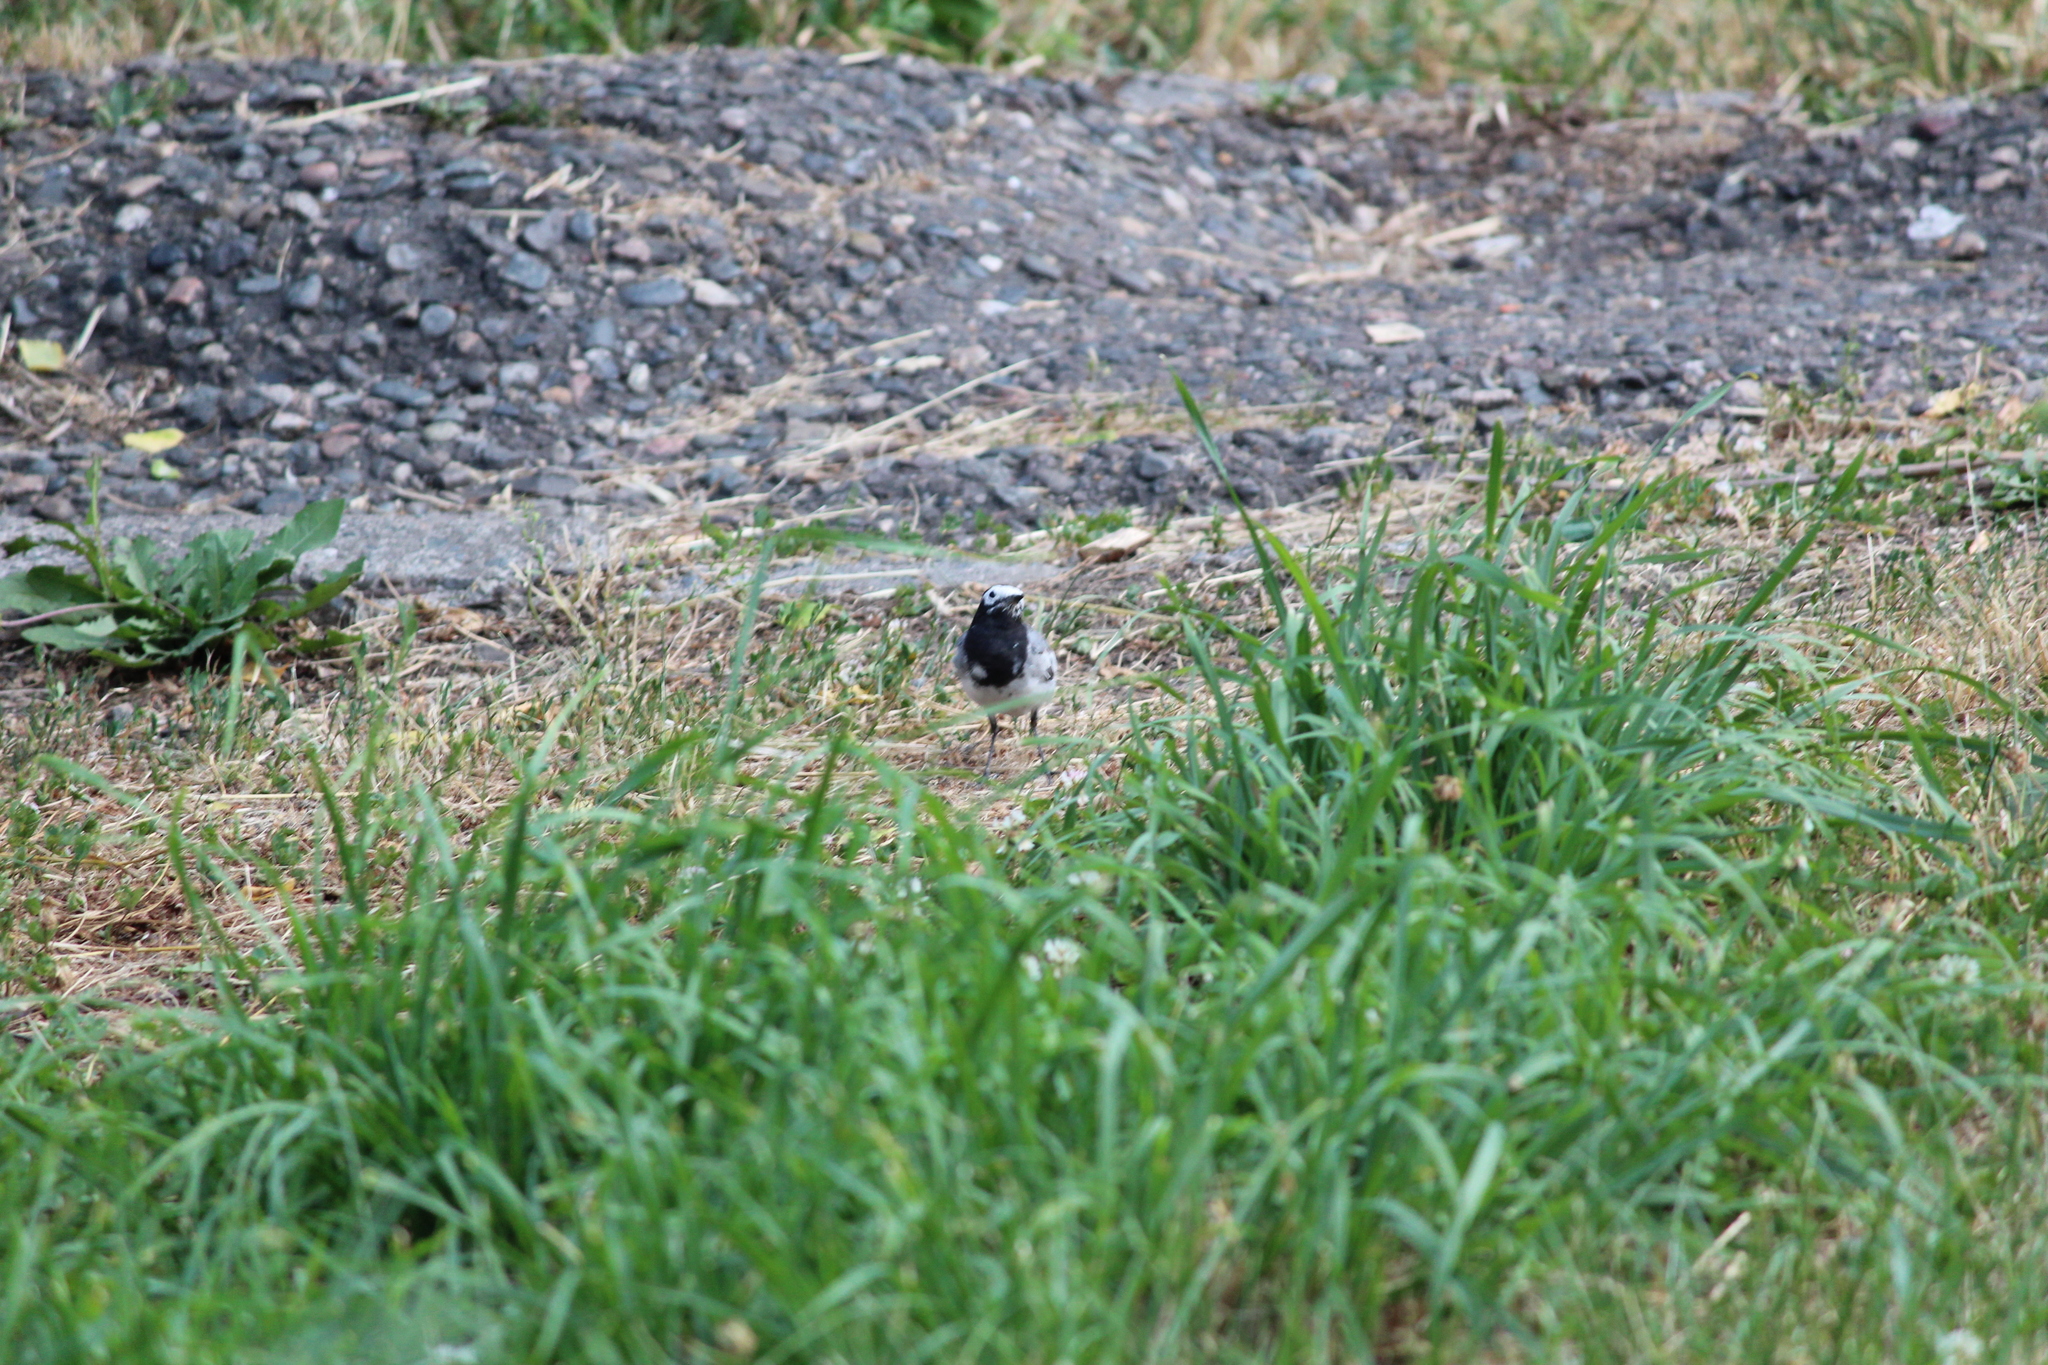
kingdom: Animalia
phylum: Chordata
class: Aves
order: Passeriformes
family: Motacillidae
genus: Motacilla
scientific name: Motacilla alba
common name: White wagtail
